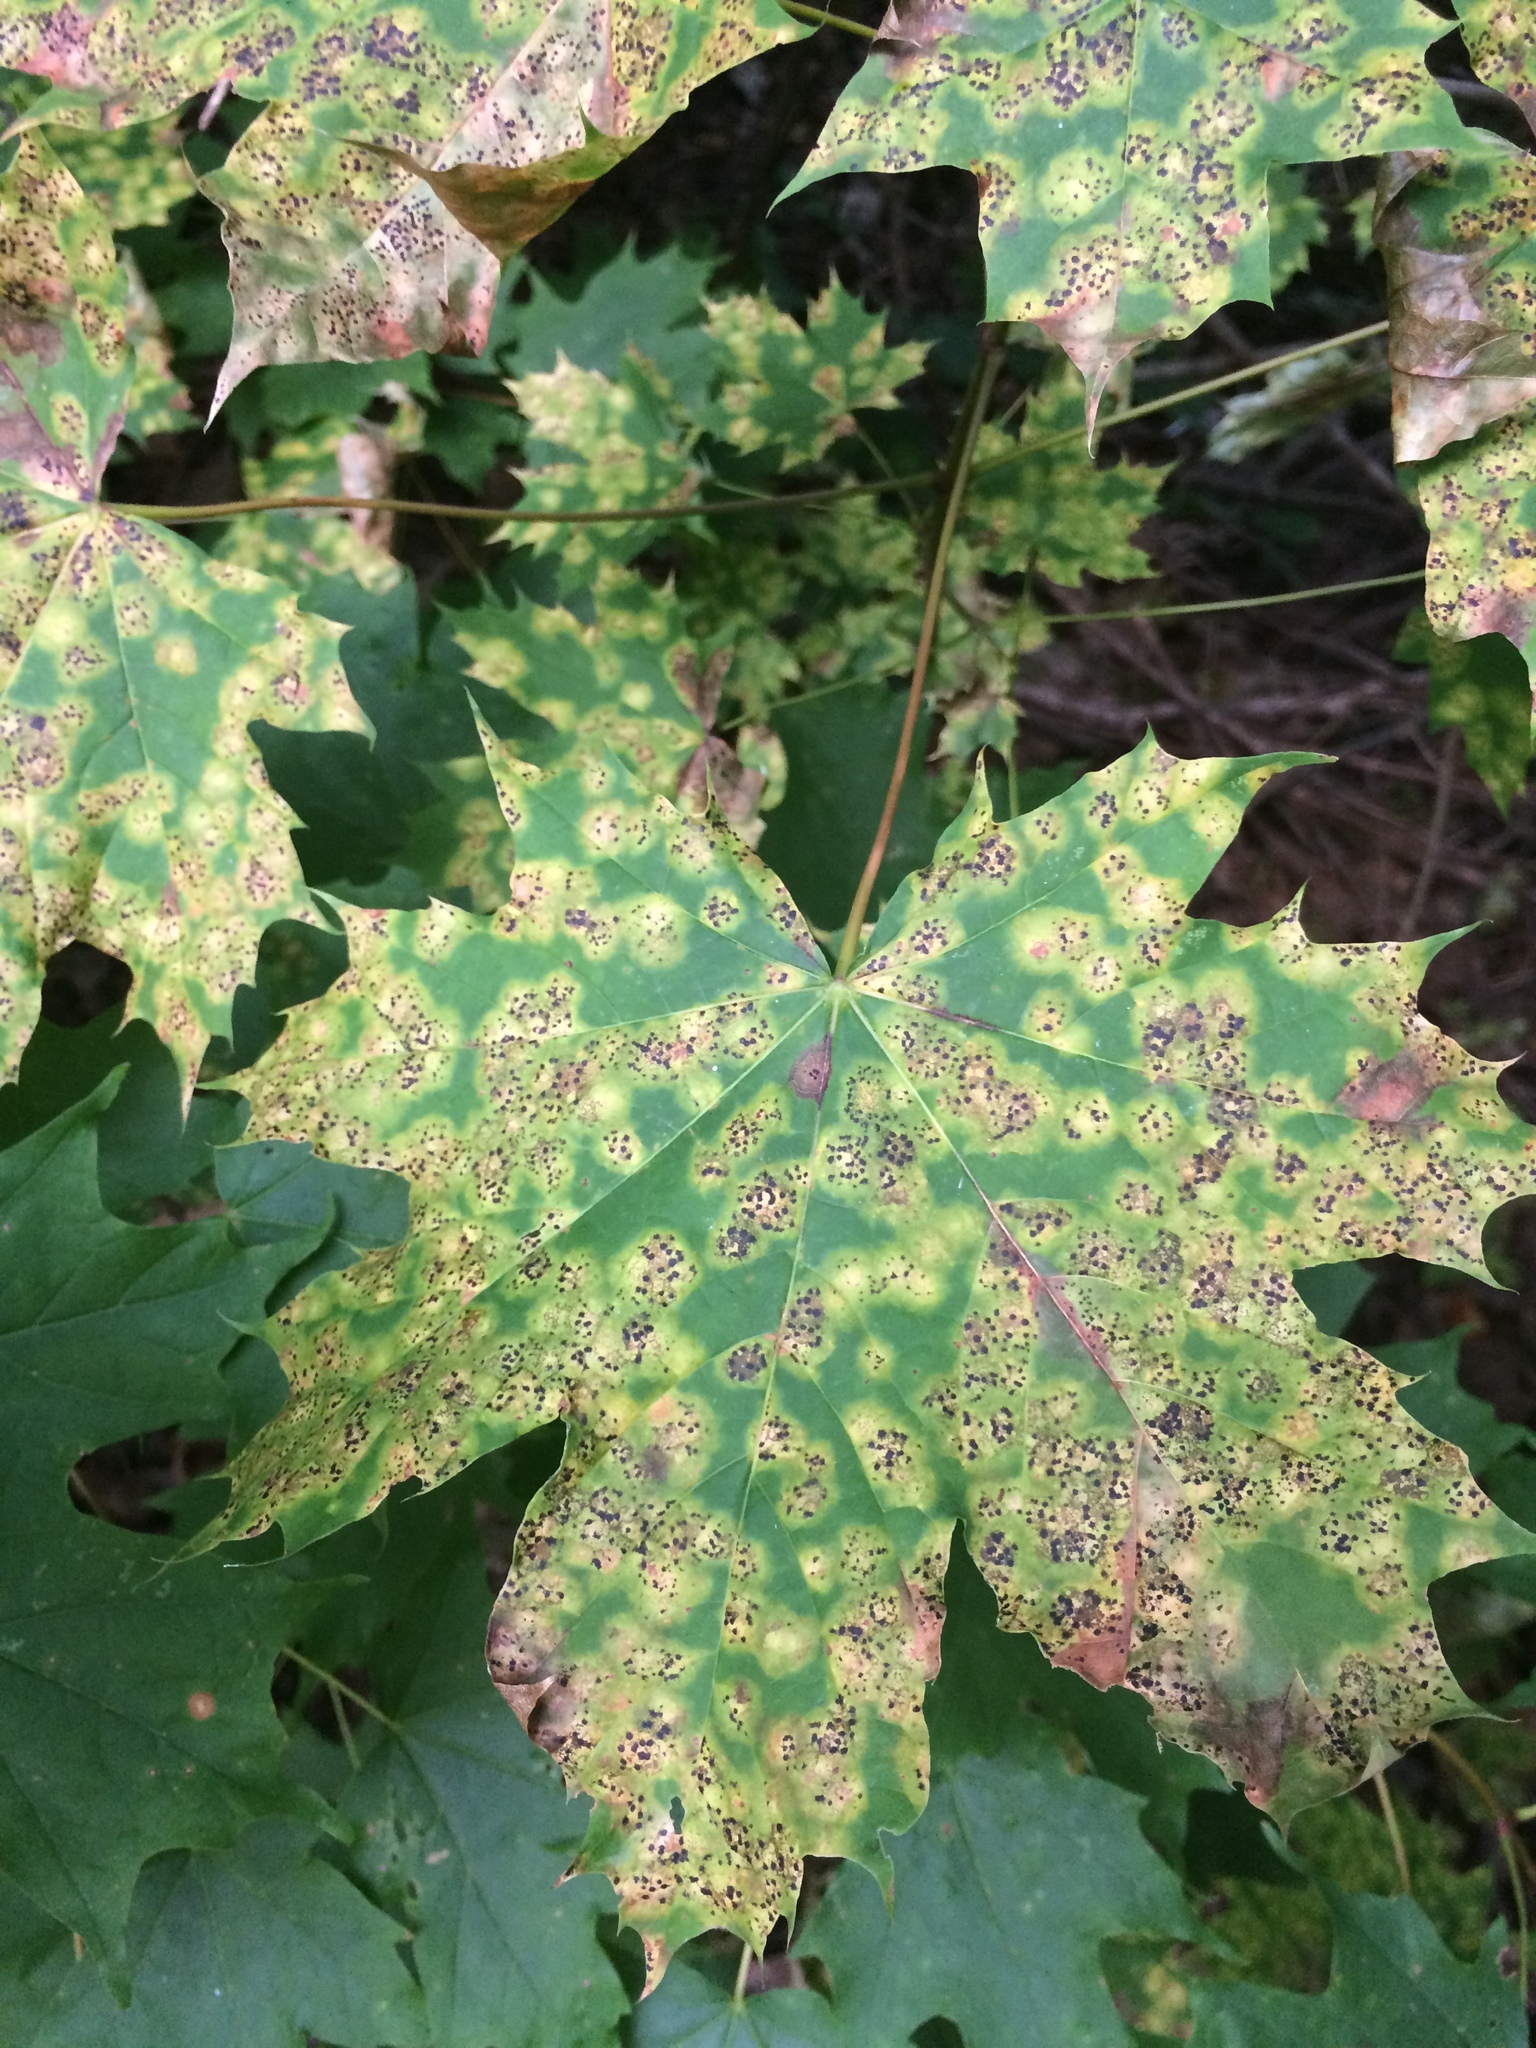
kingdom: Fungi
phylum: Ascomycota
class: Leotiomycetes
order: Rhytismatales
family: Rhytismataceae
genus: Rhytisma
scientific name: Rhytisma acerinum
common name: European tar spot
